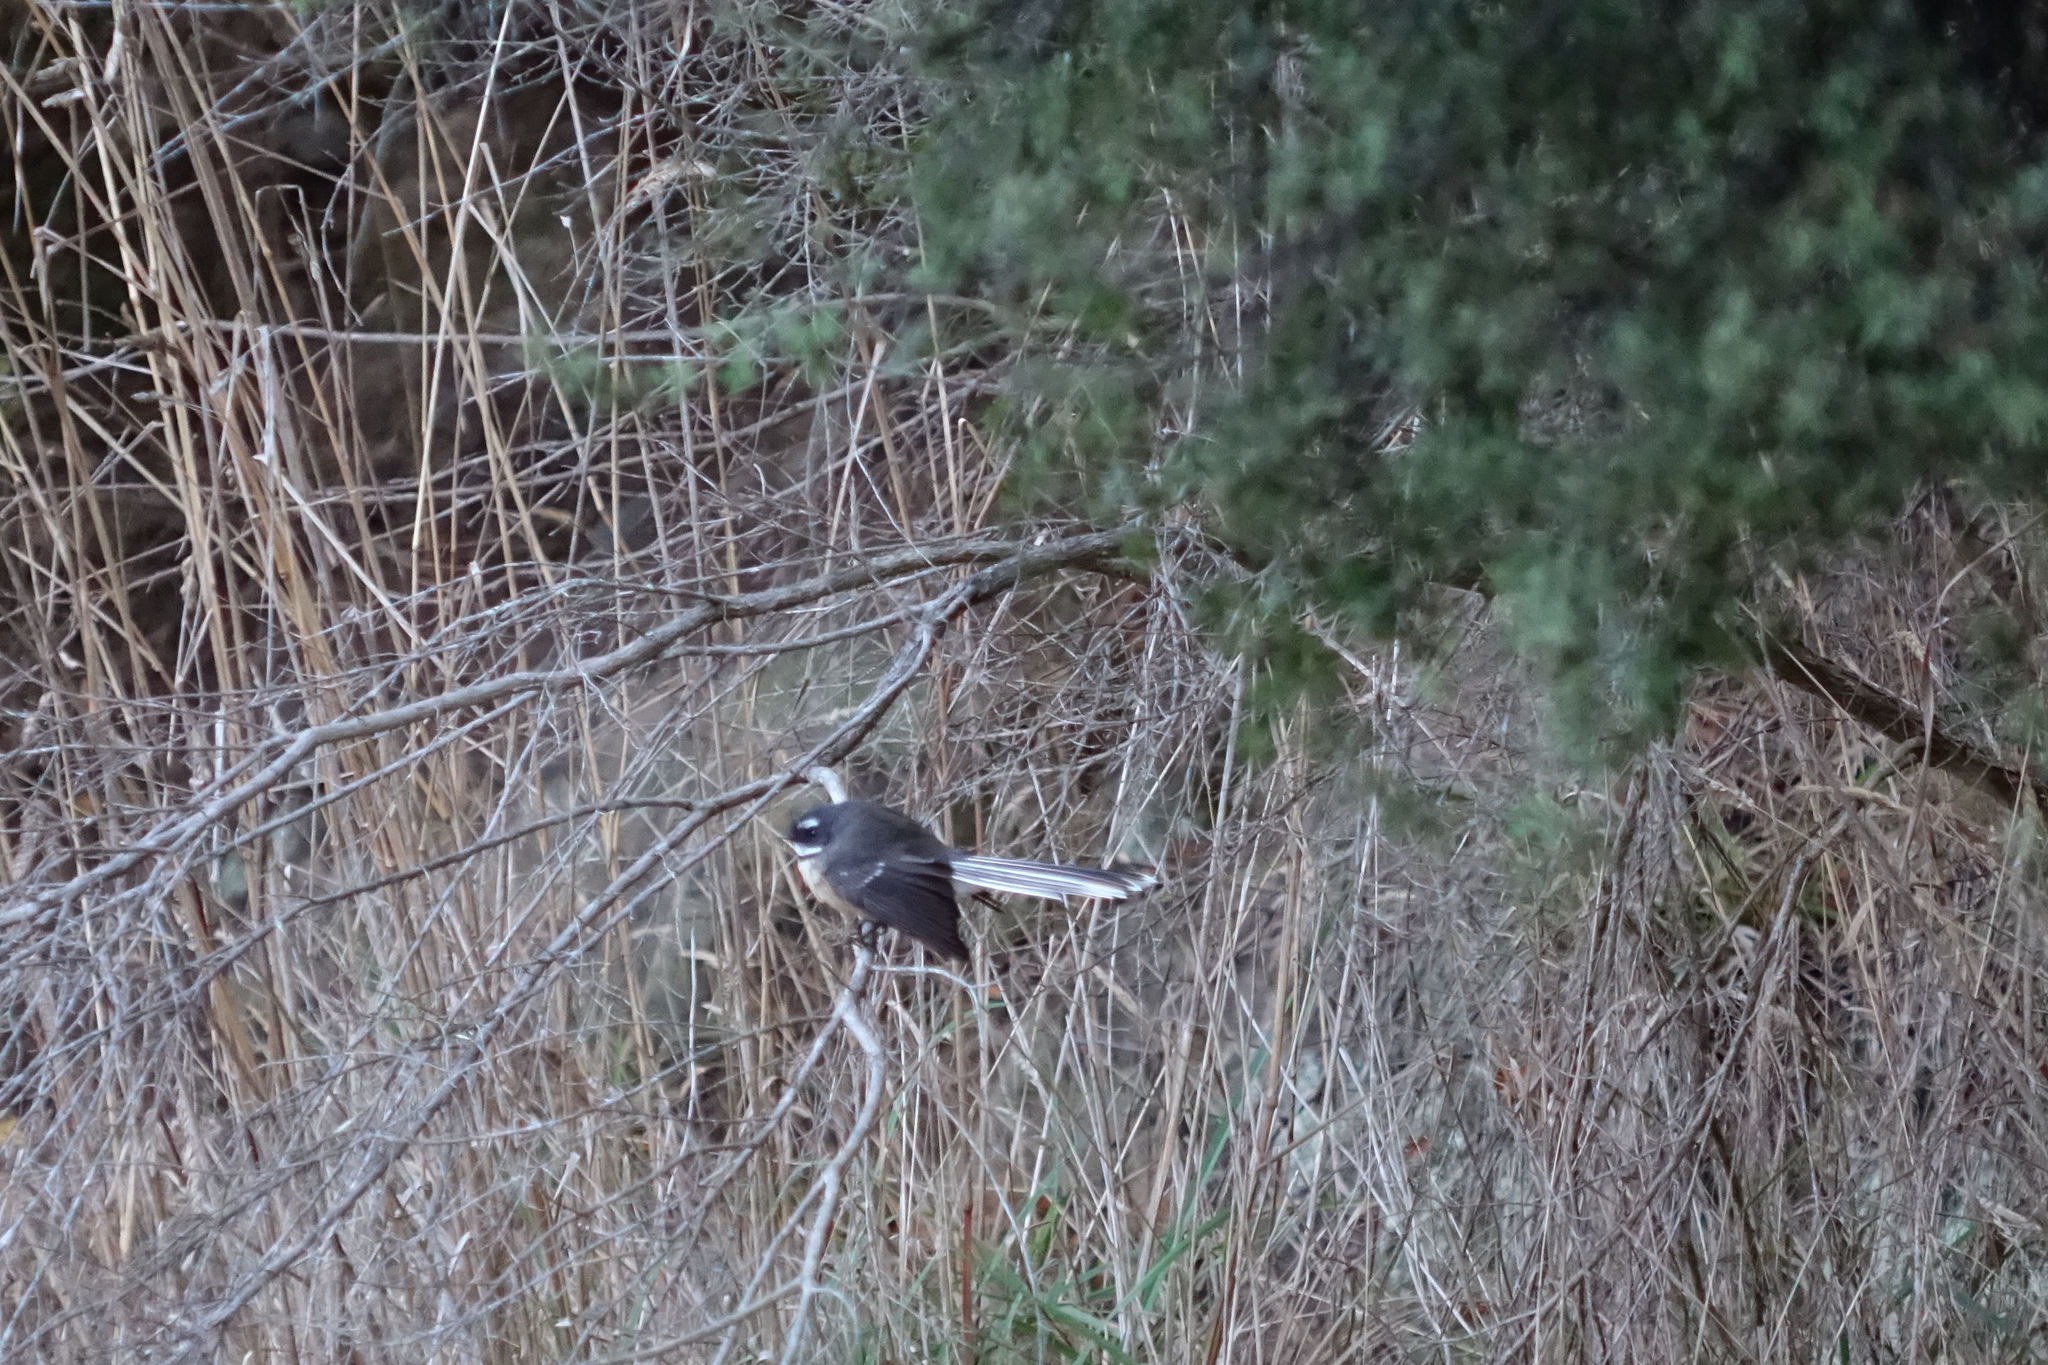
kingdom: Animalia
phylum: Chordata
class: Aves
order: Passeriformes
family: Rhipiduridae
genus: Rhipidura
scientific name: Rhipidura fuliginosa
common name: New zealand fantail
